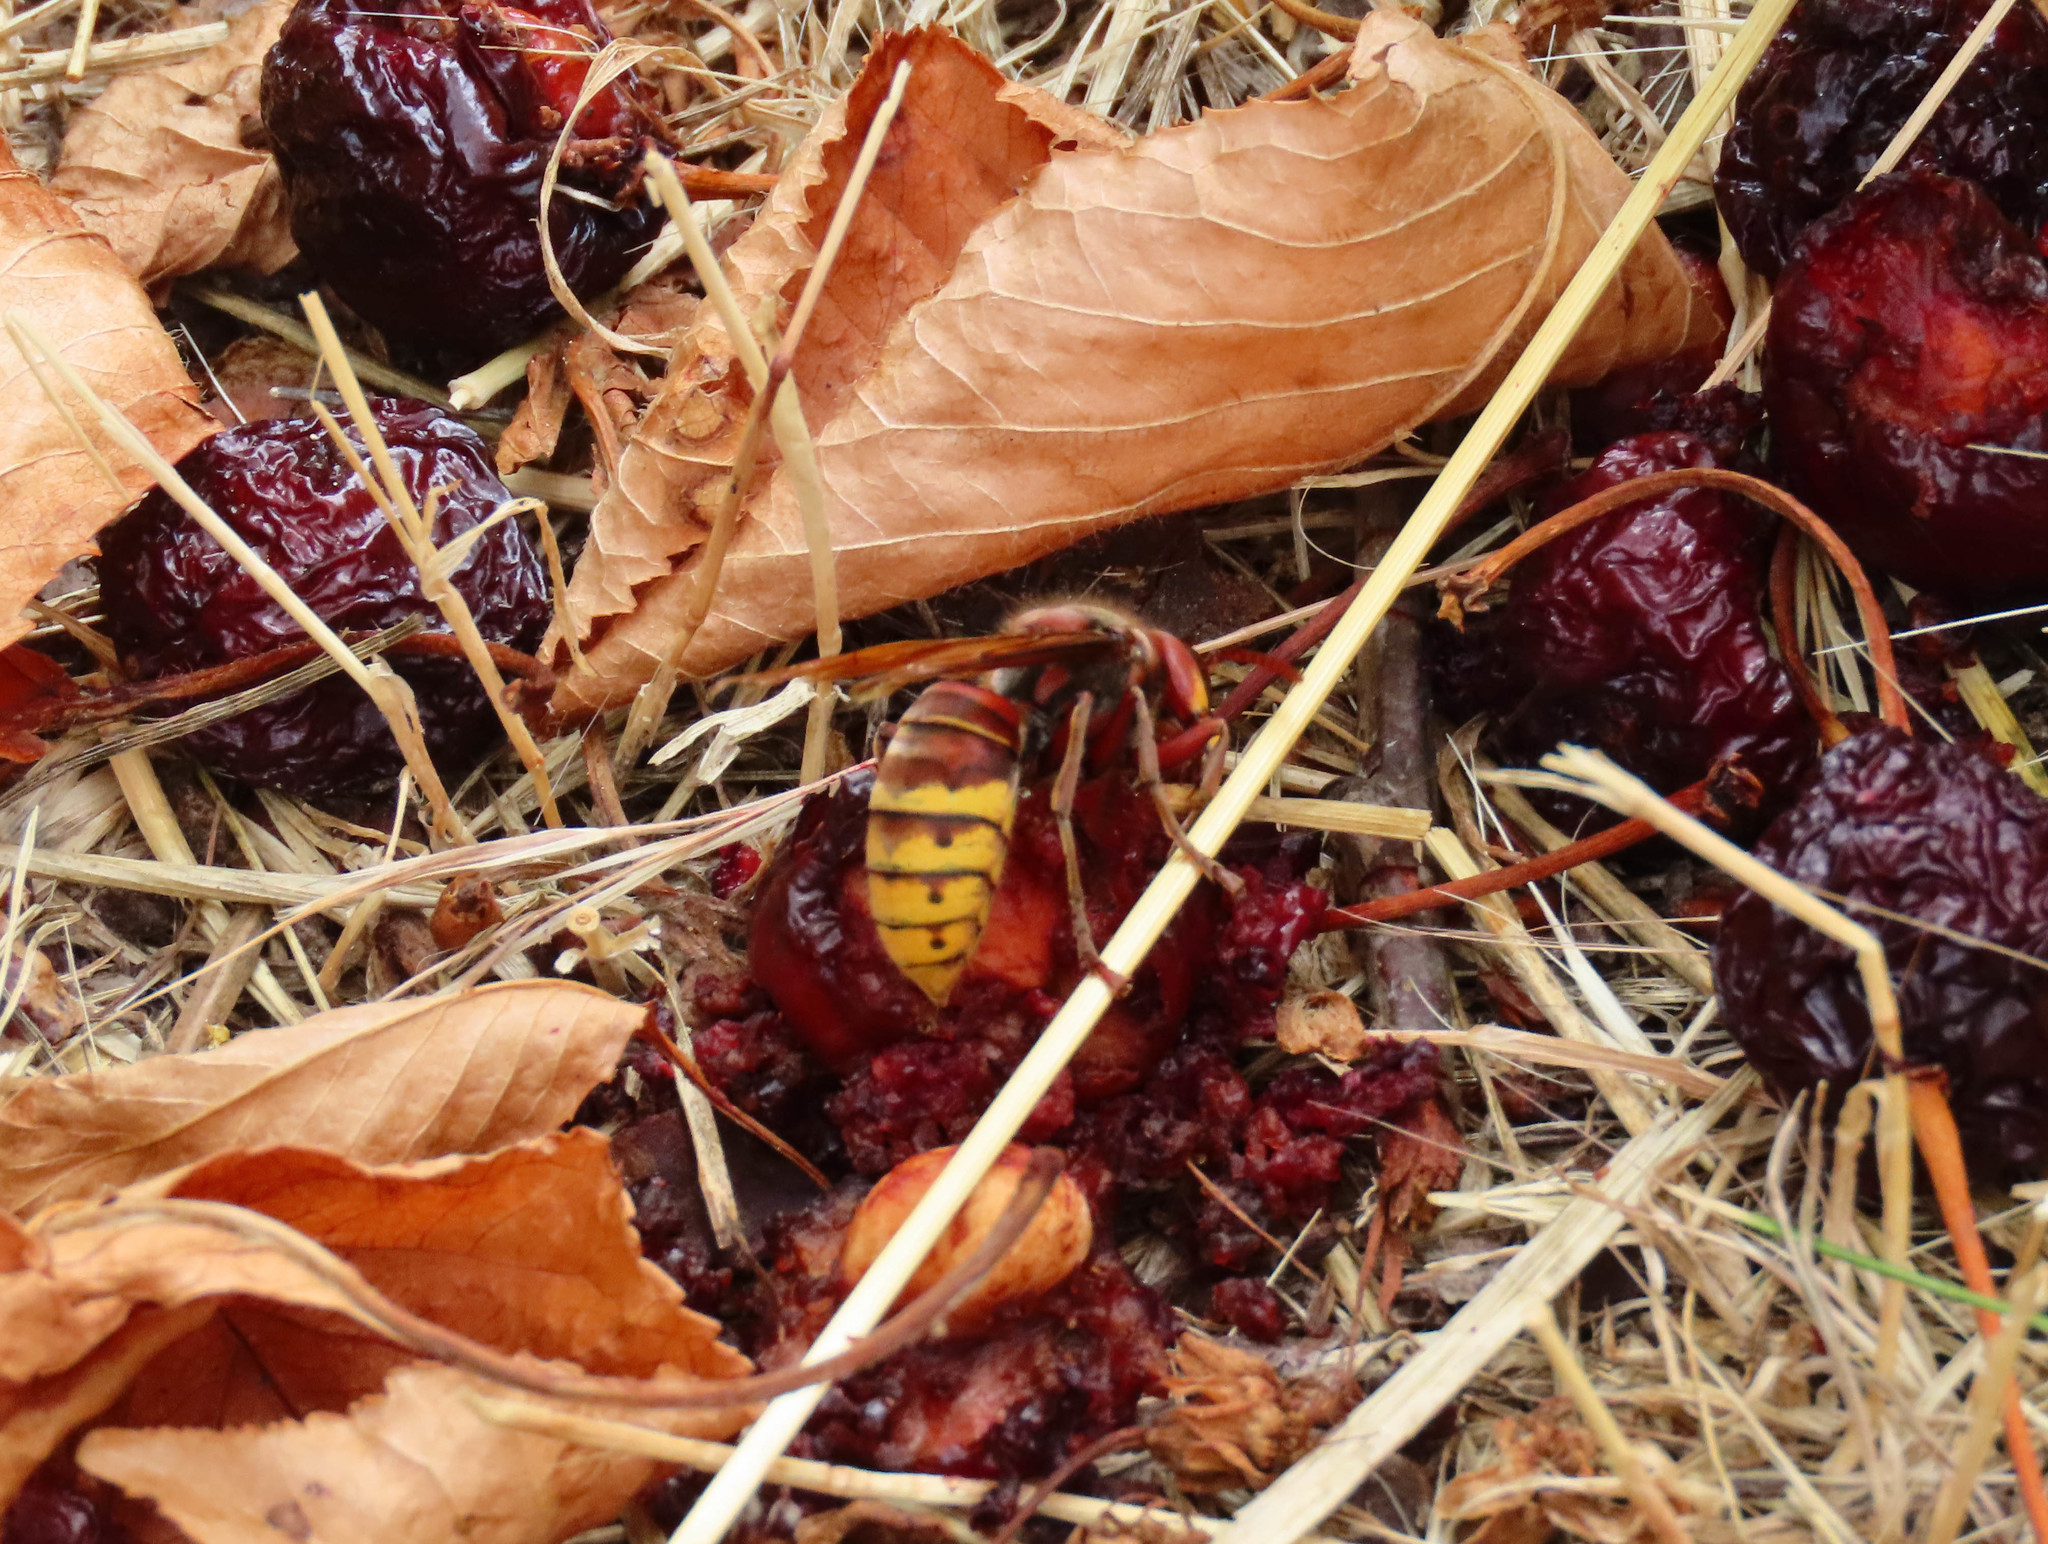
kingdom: Animalia
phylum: Arthropoda
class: Insecta
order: Hymenoptera
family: Vespidae
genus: Vespa
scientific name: Vespa crabro
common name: Hornet
